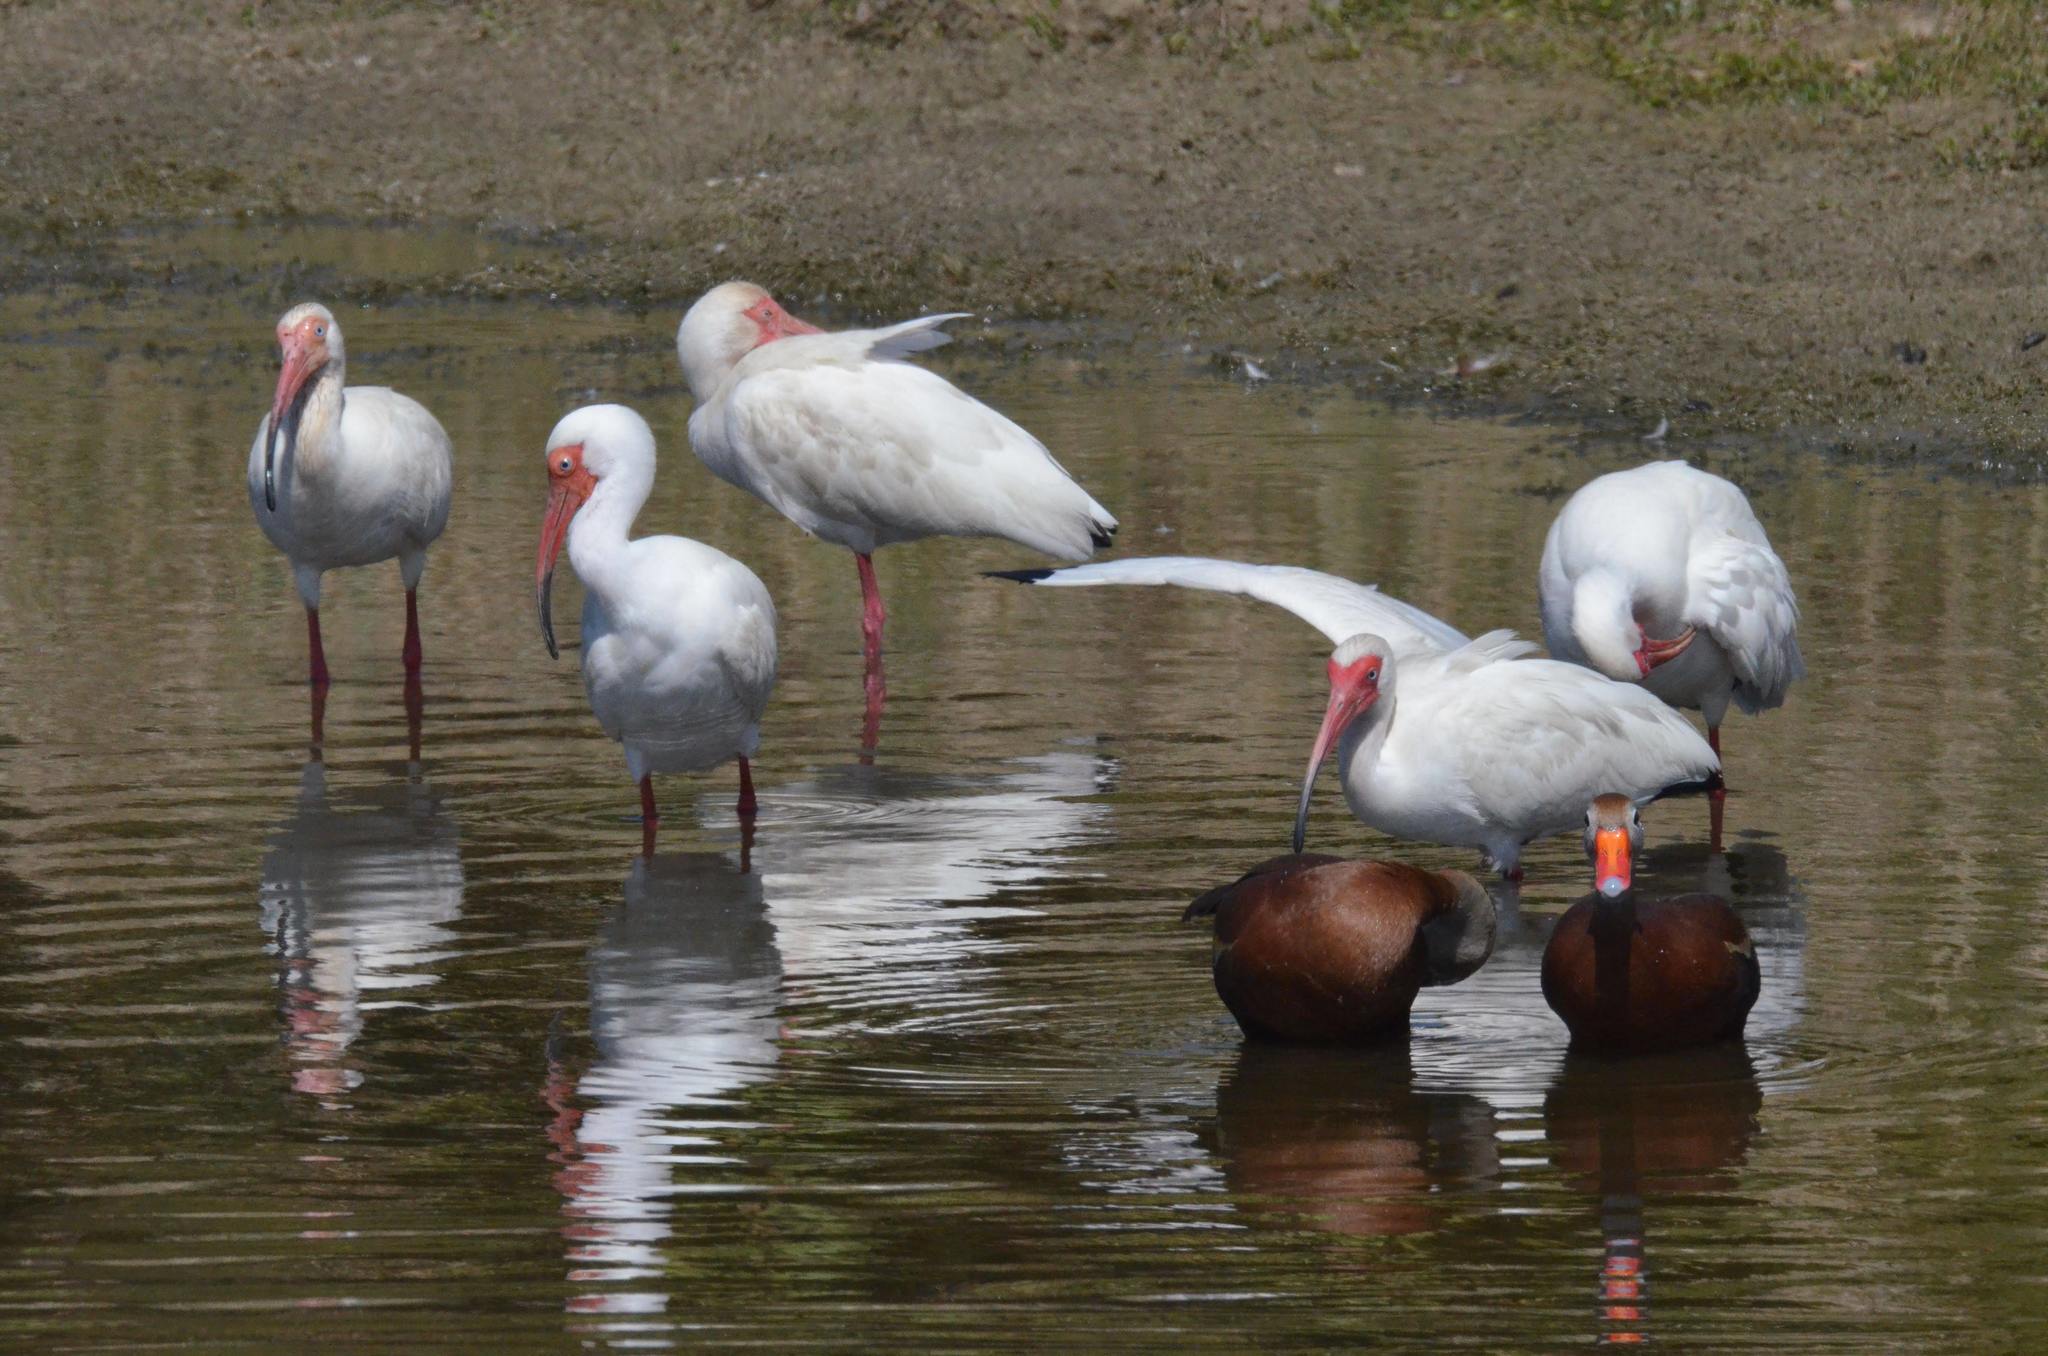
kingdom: Animalia
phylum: Chordata
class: Aves
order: Pelecaniformes
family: Threskiornithidae
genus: Eudocimus
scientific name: Eudocimus albus
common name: White ibis
